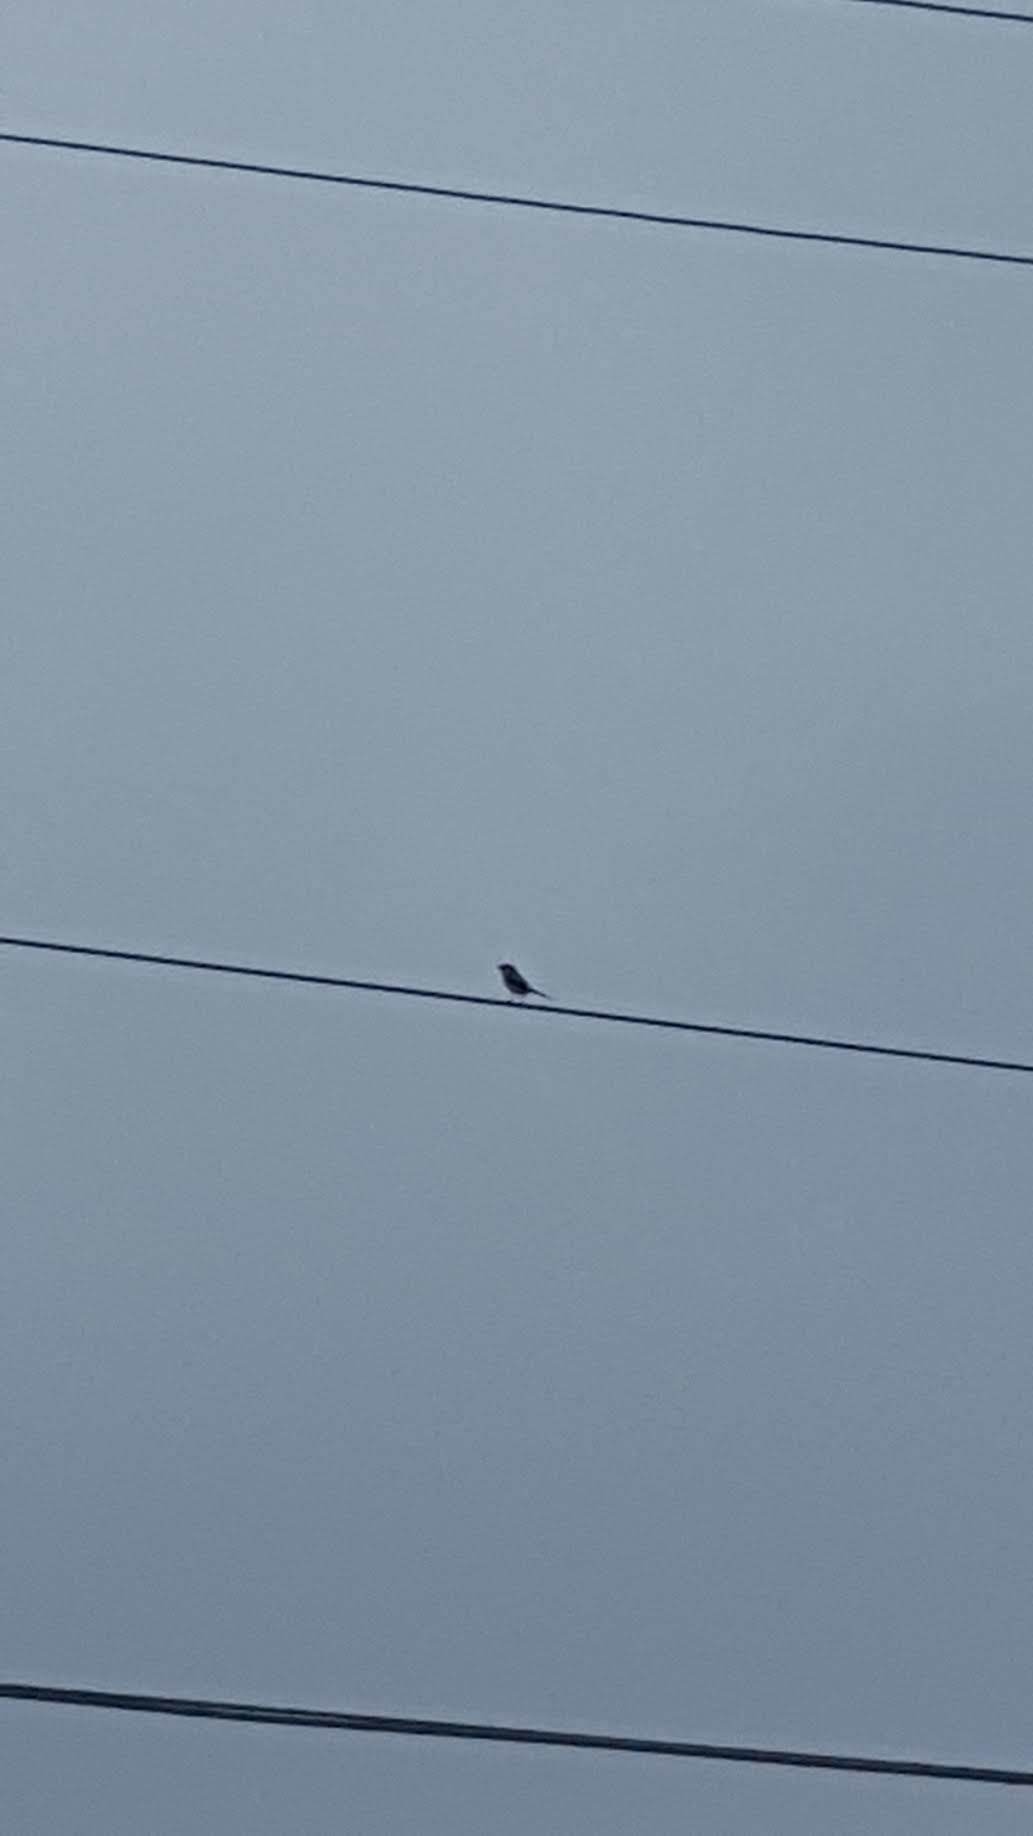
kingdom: Animalia
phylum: Chordata
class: Aves
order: Passeriformes
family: Laniidae
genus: Lanius
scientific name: Lanius ludovicianus
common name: Loggerhead shrike
